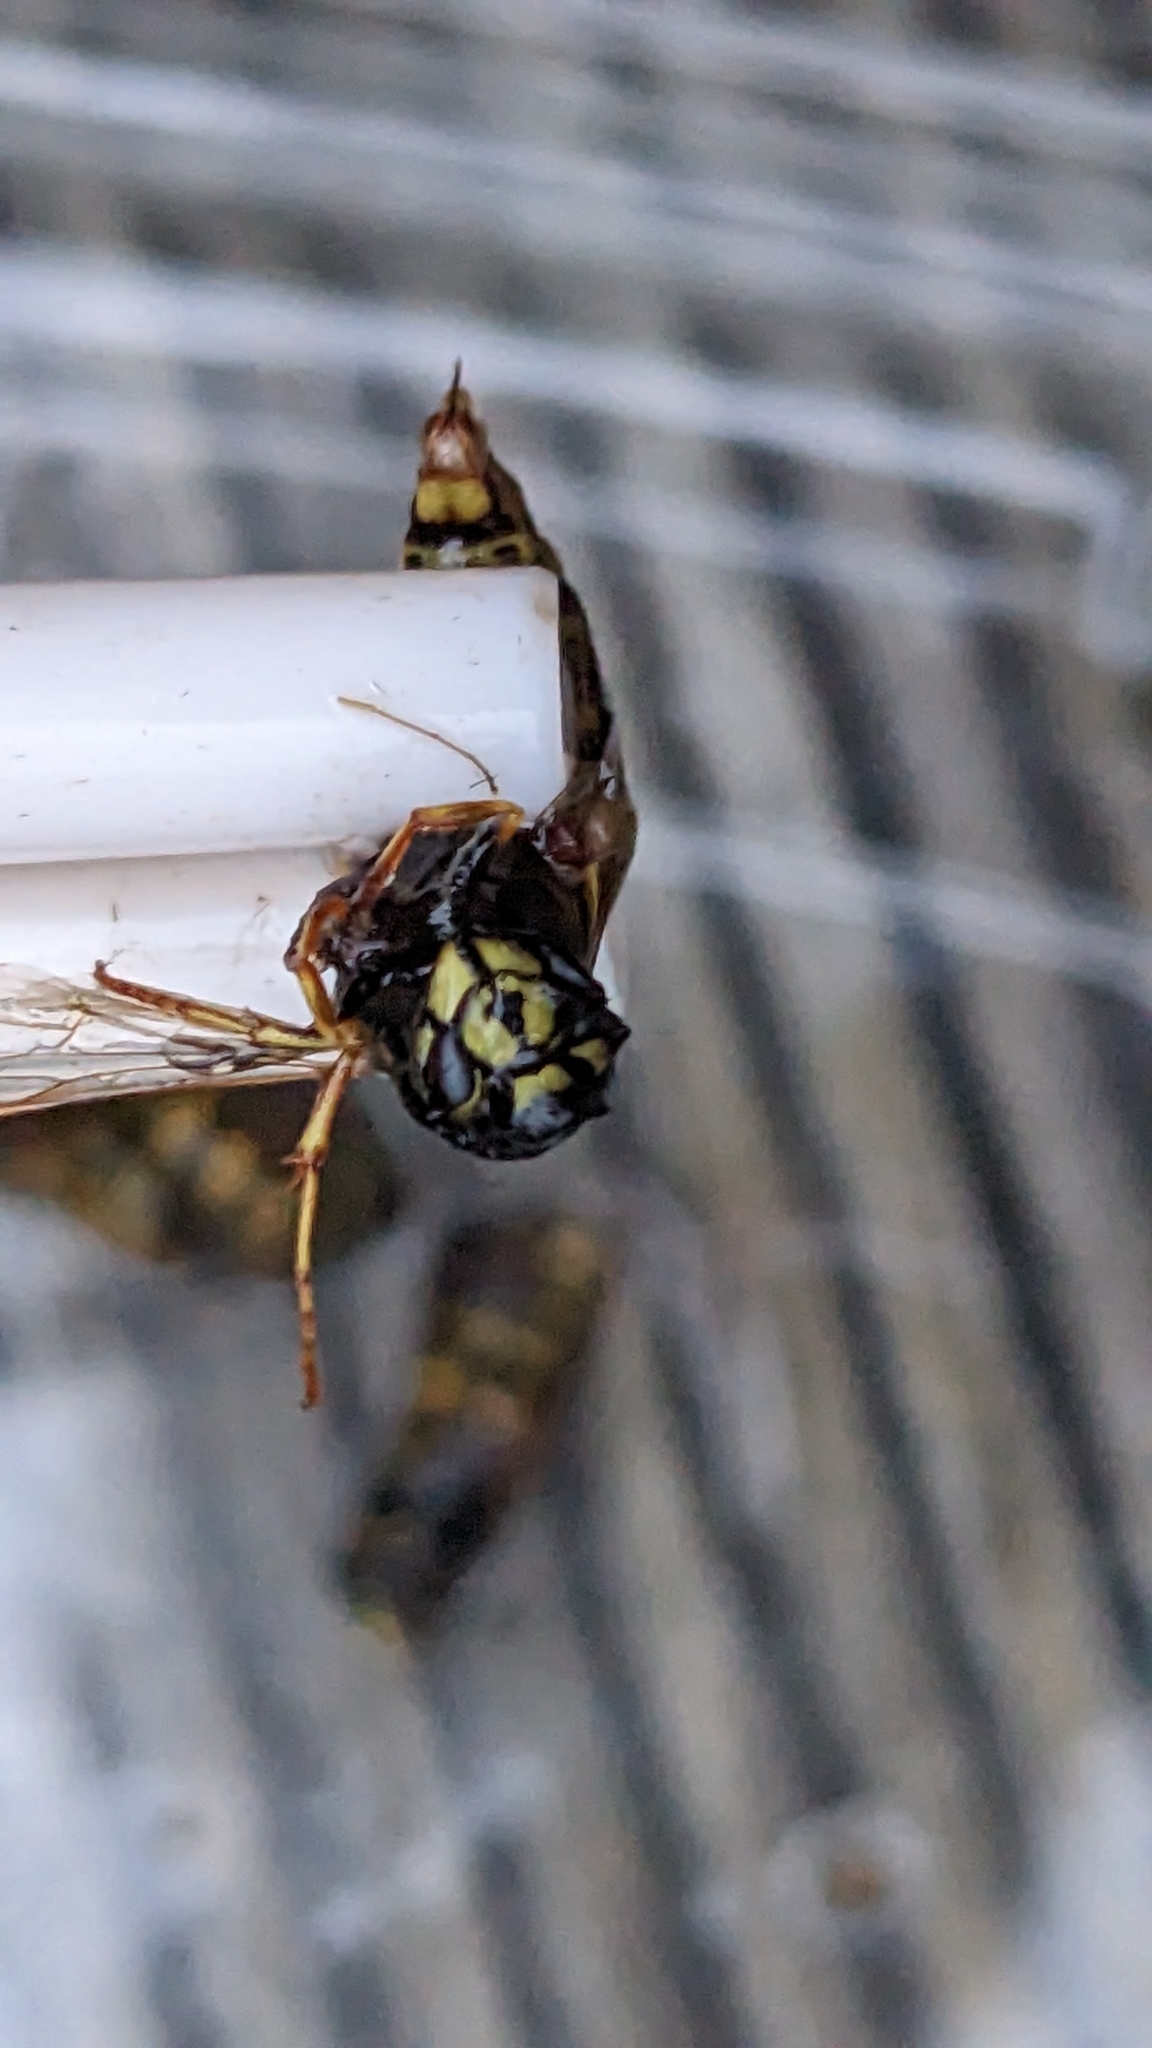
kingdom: Animalia
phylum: Arthropoda
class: Insecta
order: Hymenoptera
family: Vespidae
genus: Vespula
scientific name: Vespula vulgaris
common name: Common wasp
